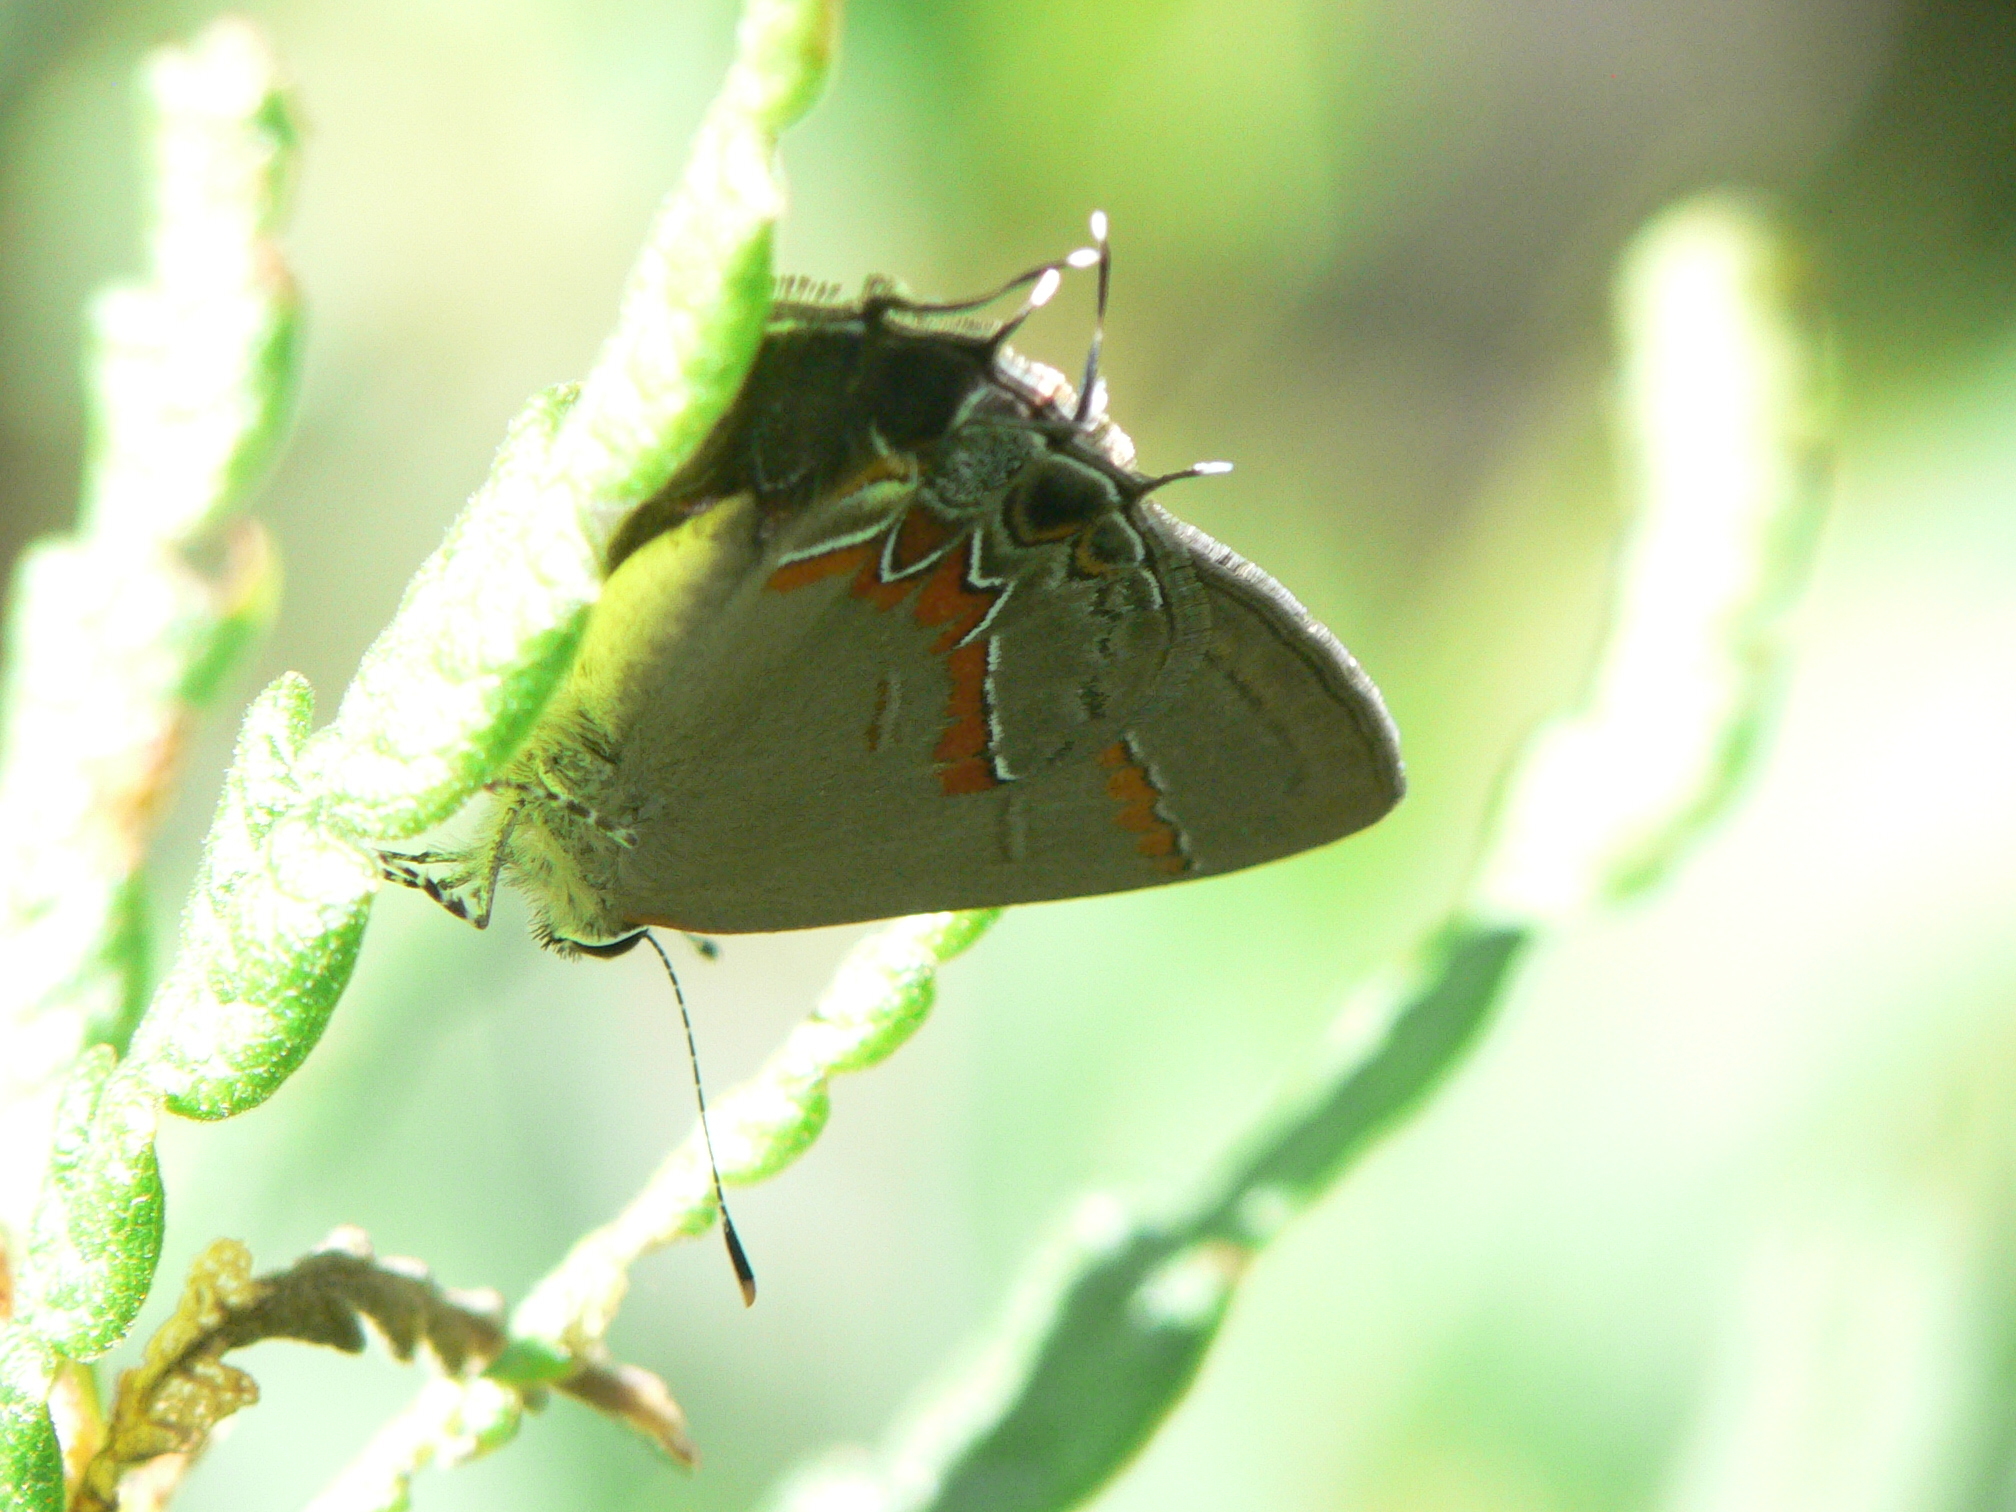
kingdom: Animalia
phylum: Arthropoda
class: Insecta
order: Lepidoptera
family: Lycaenidae
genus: Calycopis
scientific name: Calycopis cecrops
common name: Red-banded hairstreak
